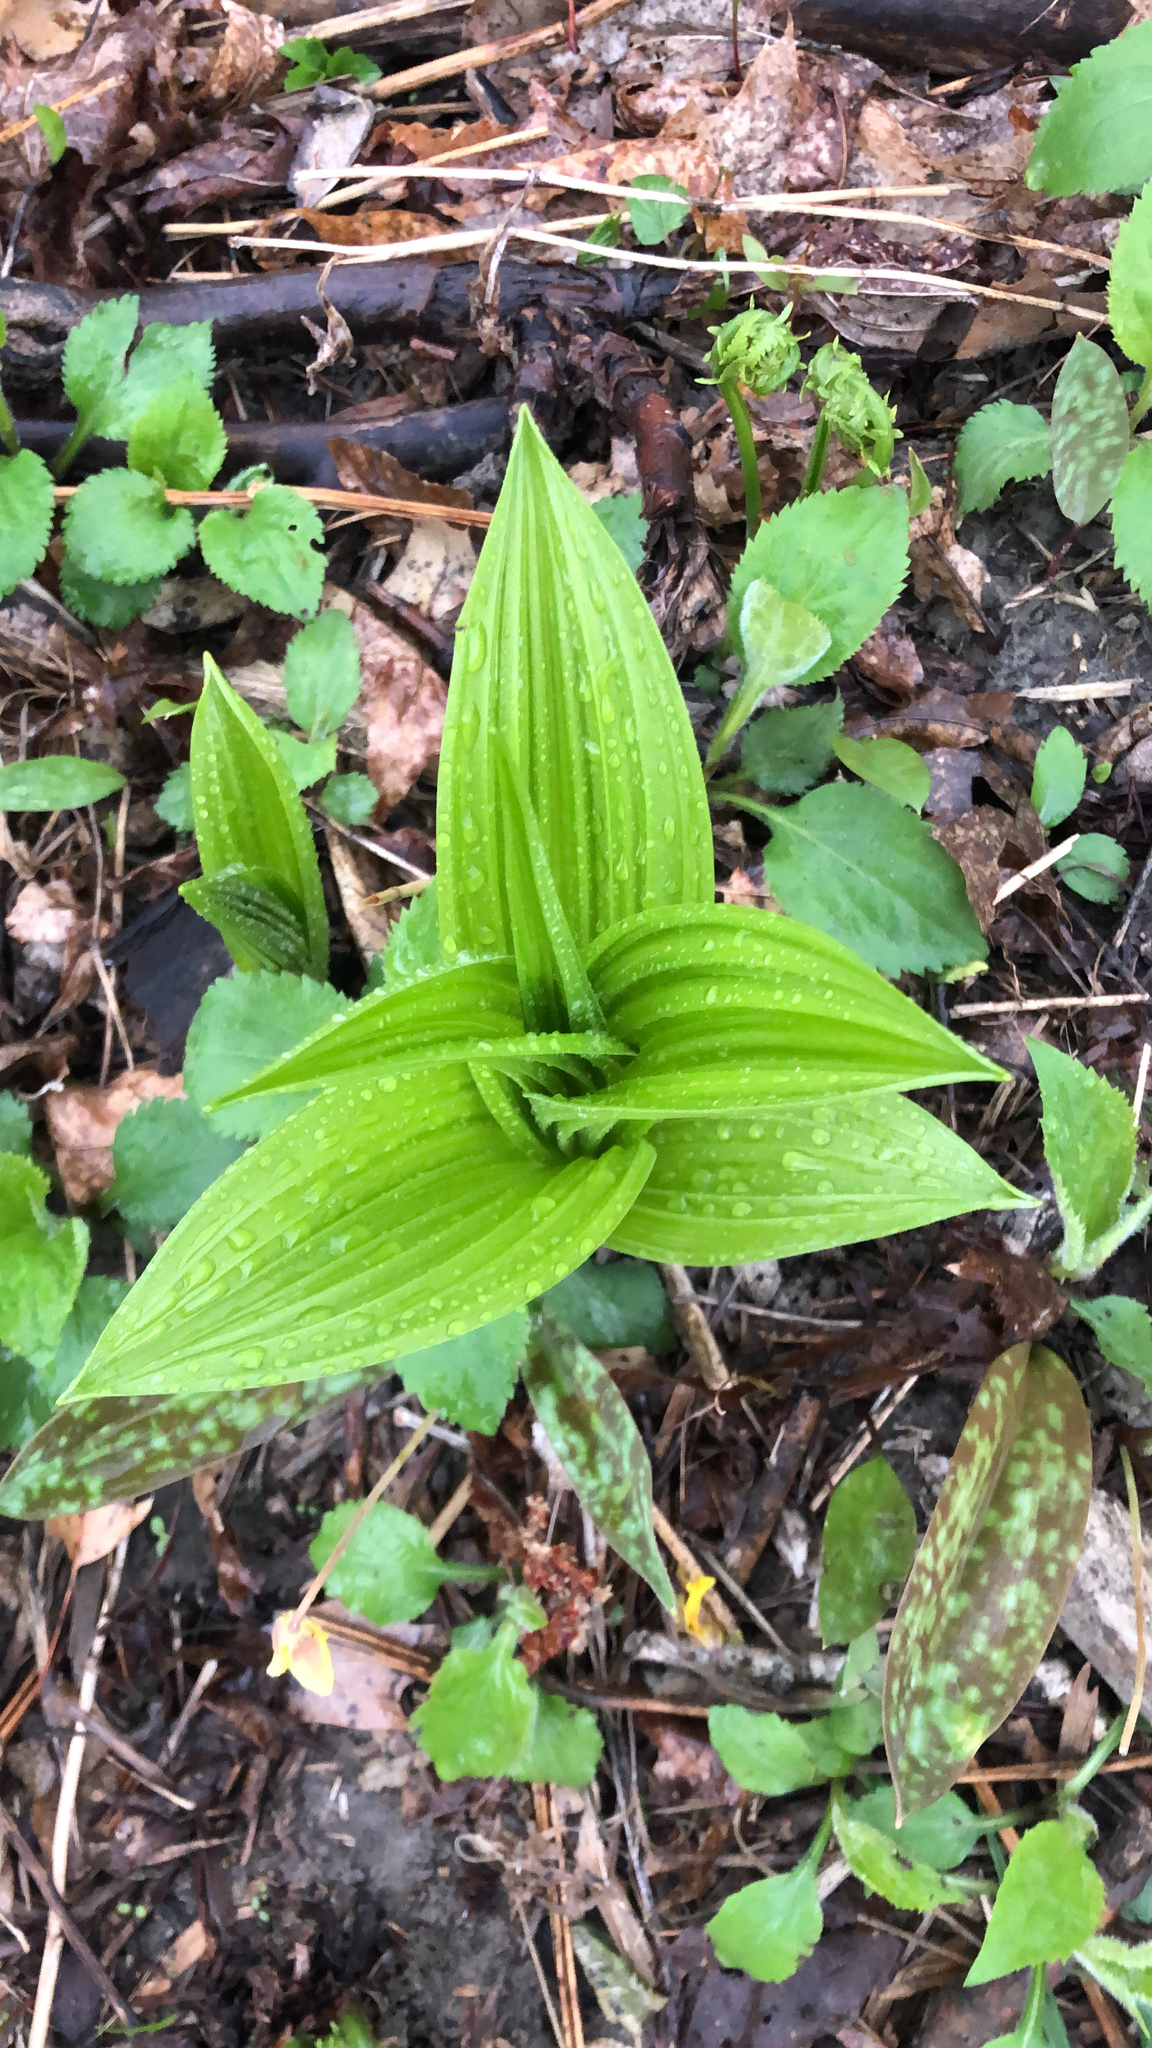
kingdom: Plantae
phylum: Tracheophyta
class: Liliopsida
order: Liliales
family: Melanthiaceae
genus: Veratrum
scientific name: Veratrum viride
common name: American false hellebore
